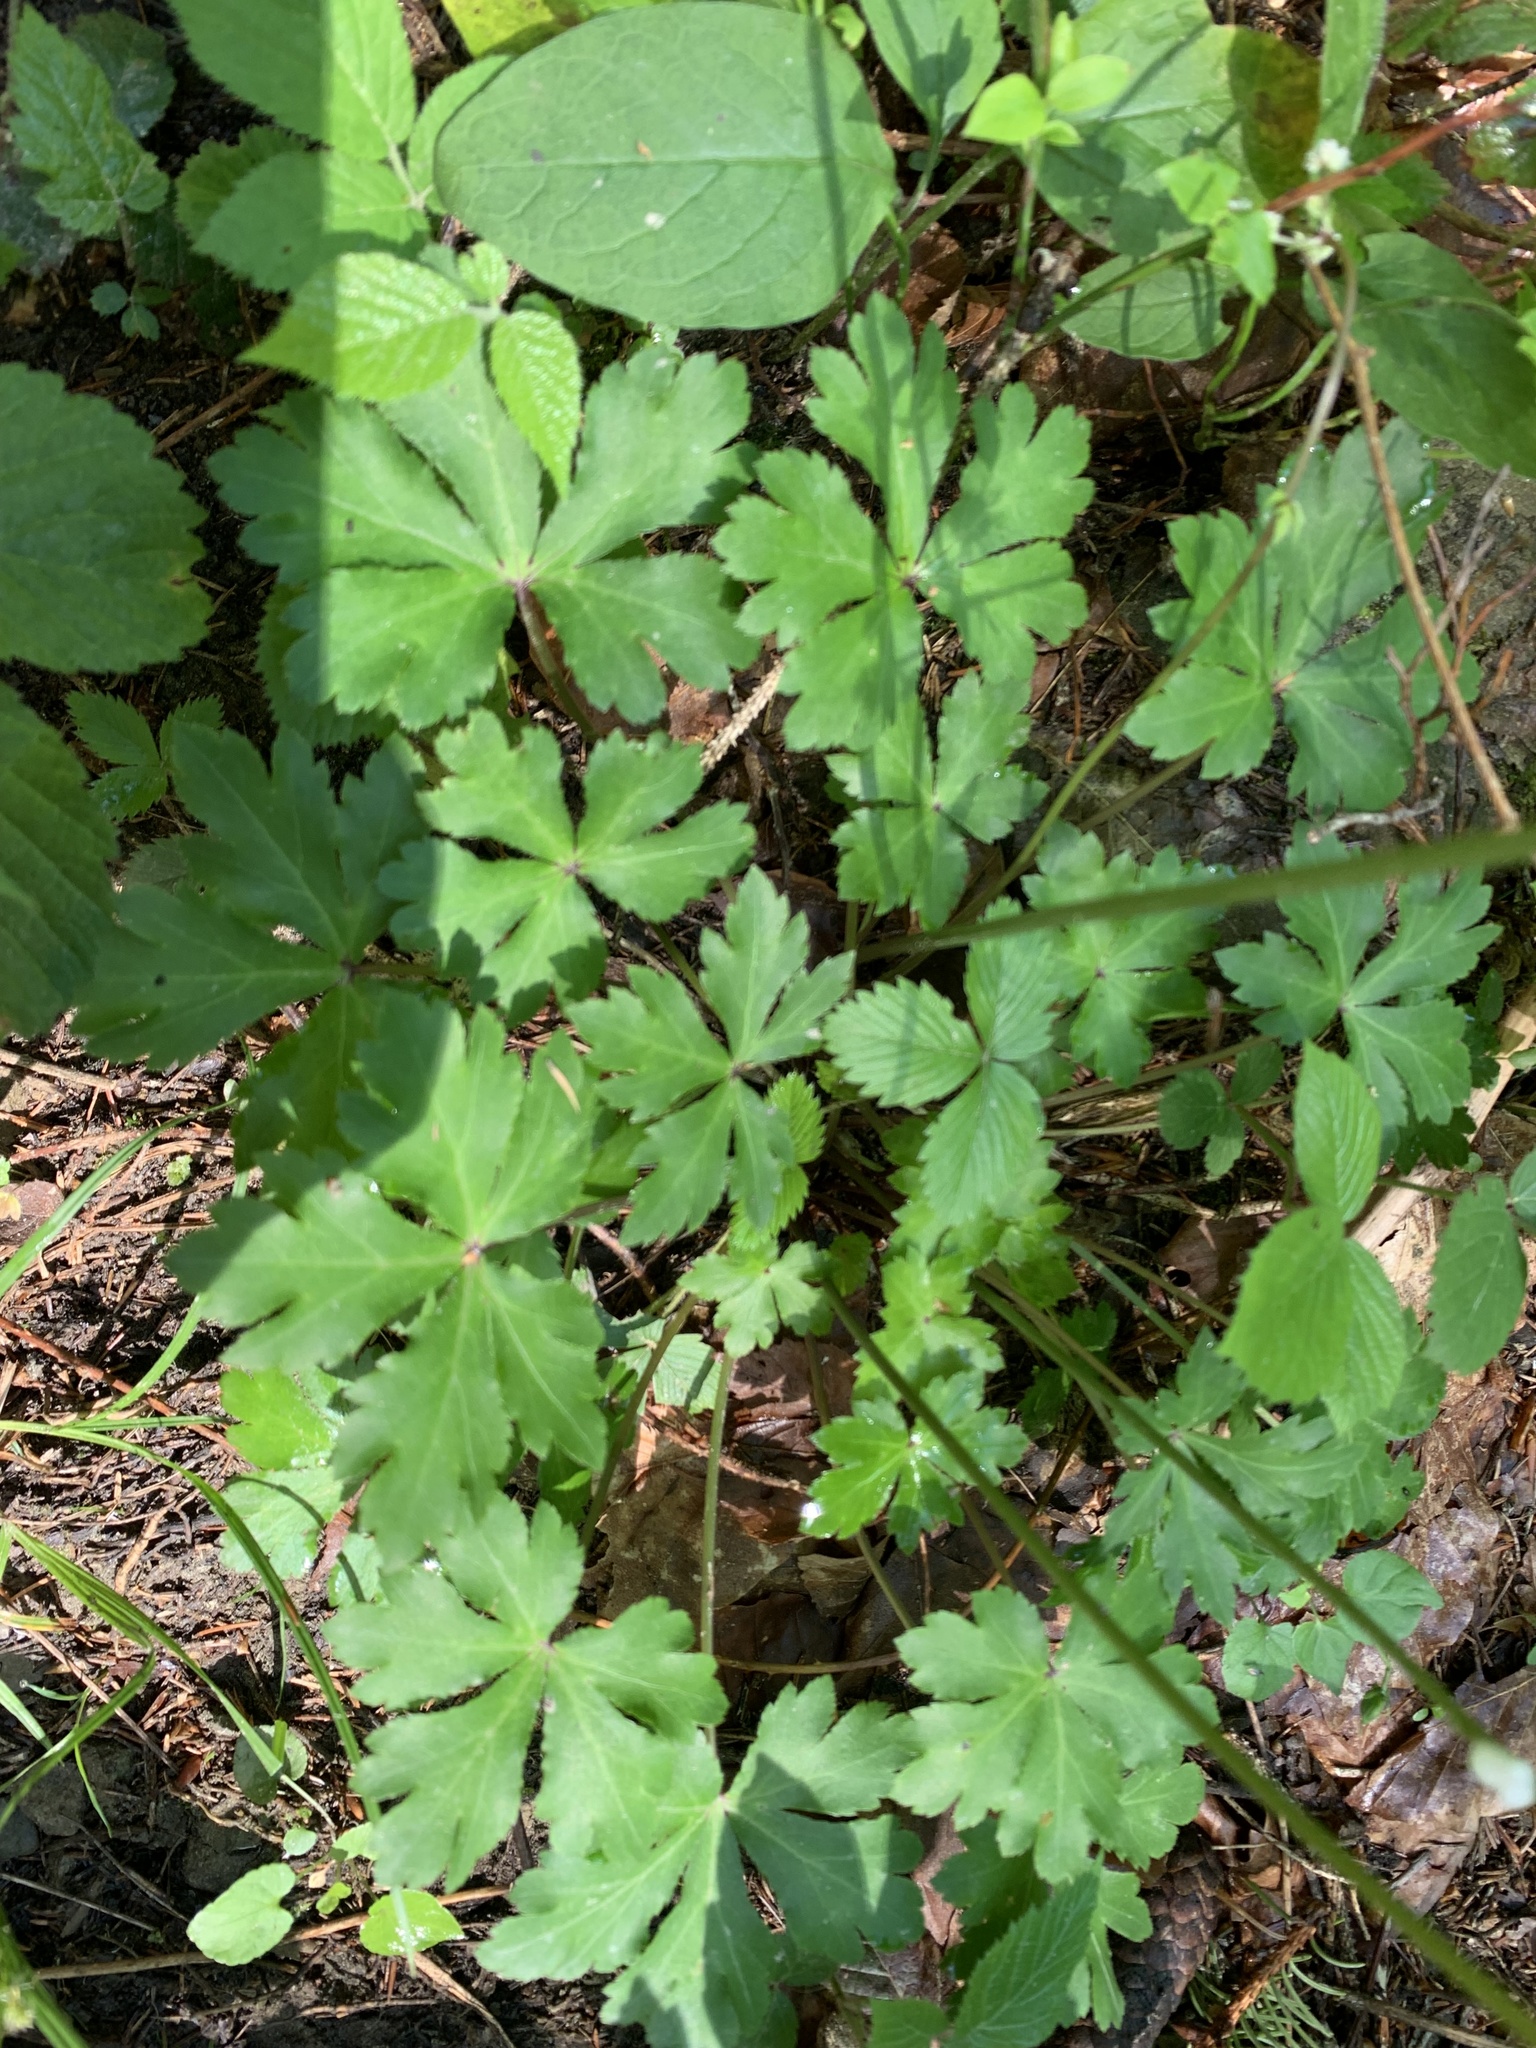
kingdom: Plantae
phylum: Tracheophyta
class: Magnoliopsida
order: Apiales
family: Apiaceae
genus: Sanicula
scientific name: Sanicula europaea
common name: Sanicle
